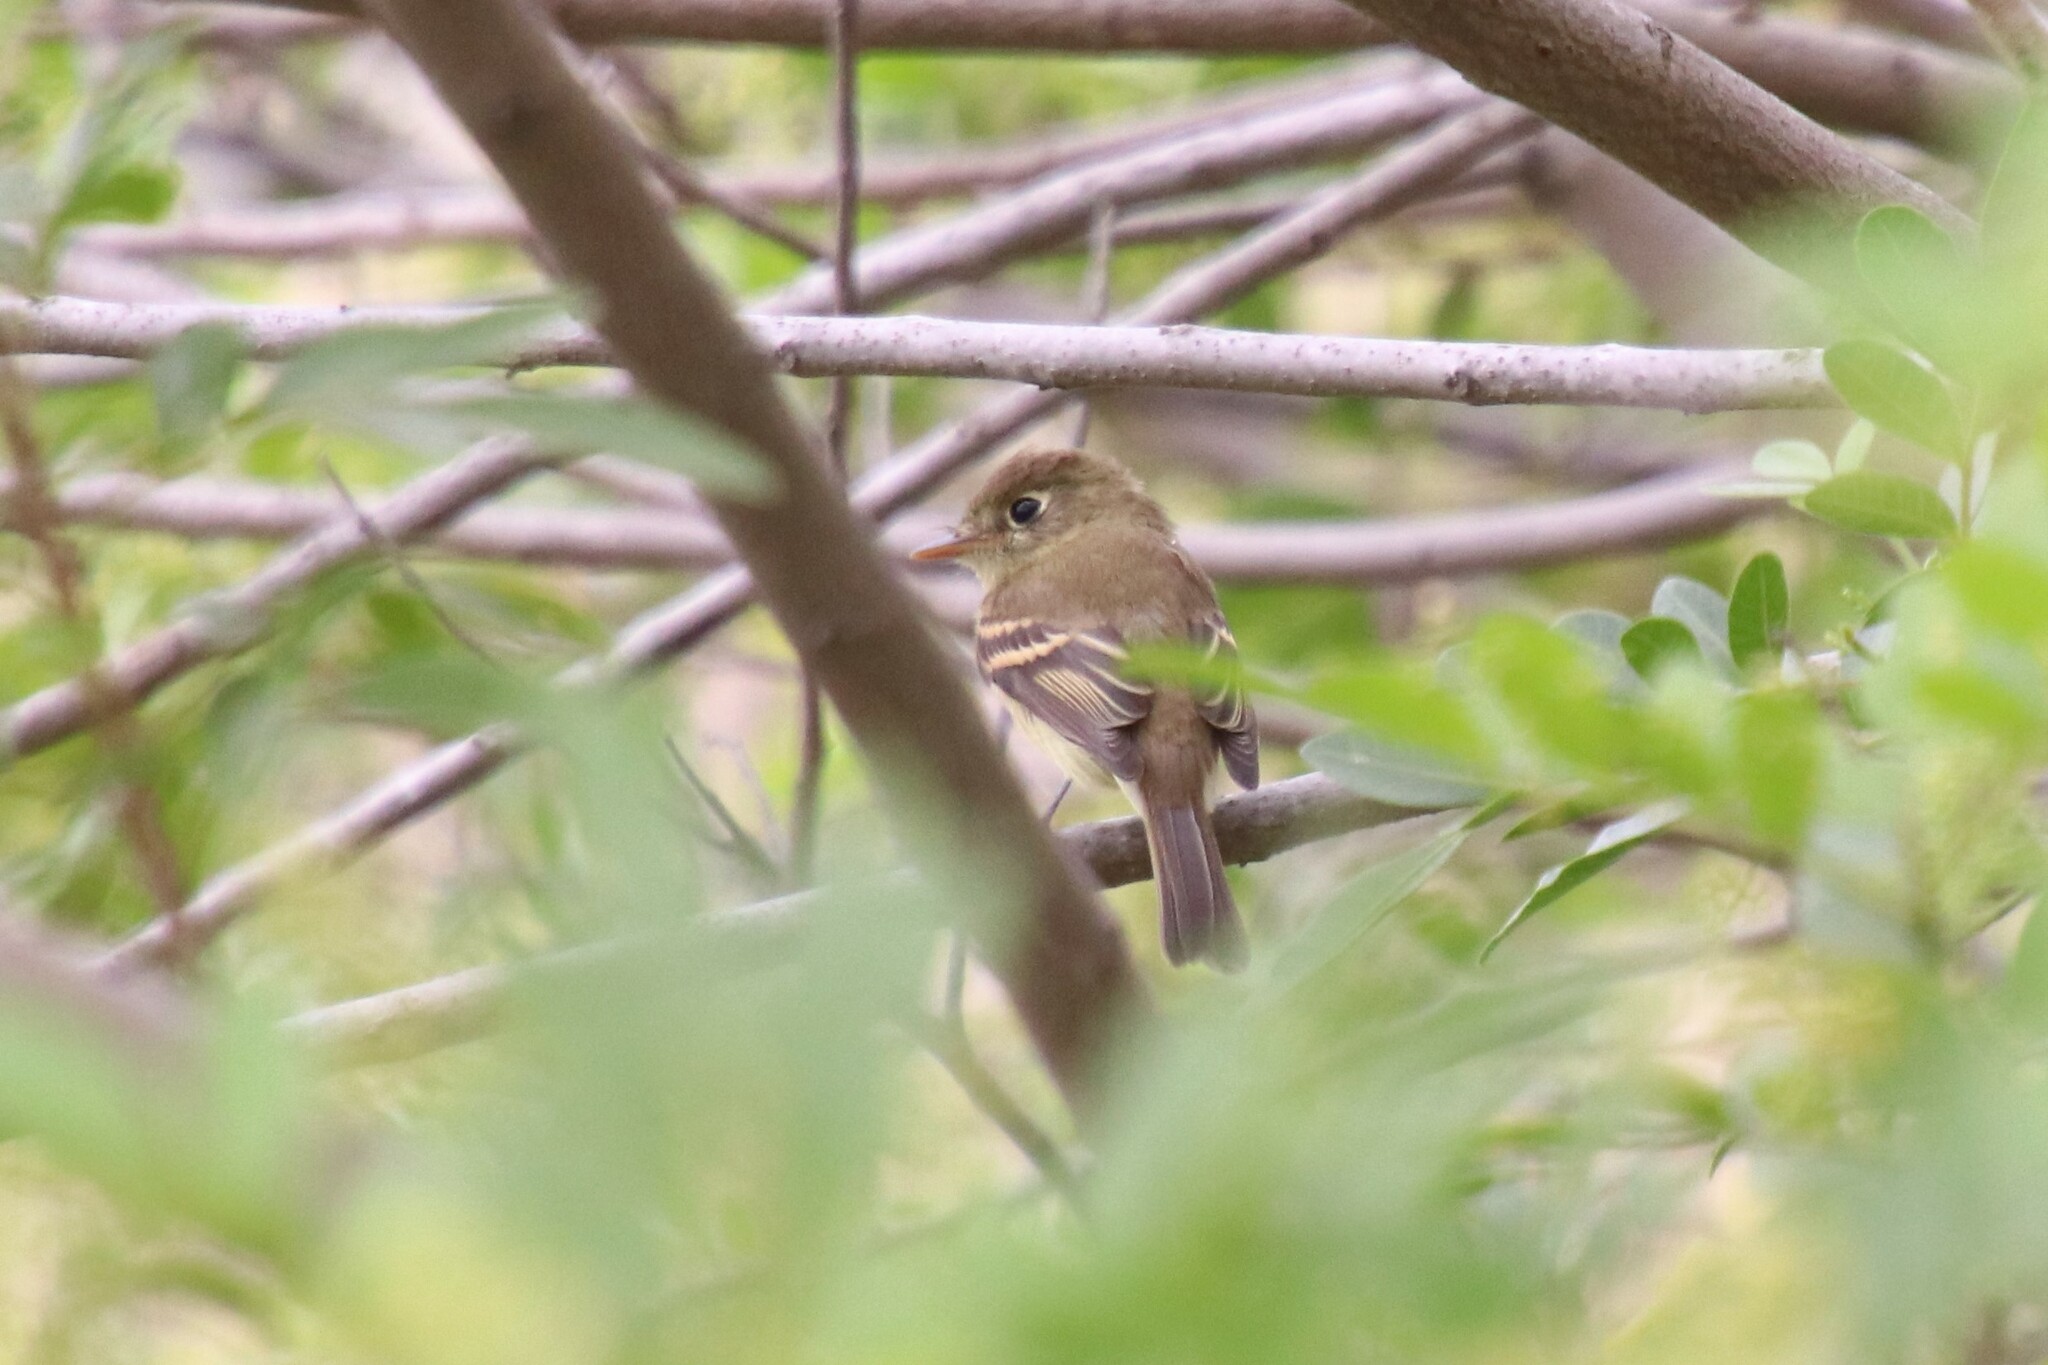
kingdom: Animalia
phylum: Chordata
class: Aves
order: Passeriformes
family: Tyrannidae
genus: Empidonax
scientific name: Empidonax difficilis
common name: Pacific-slope flycatcher
